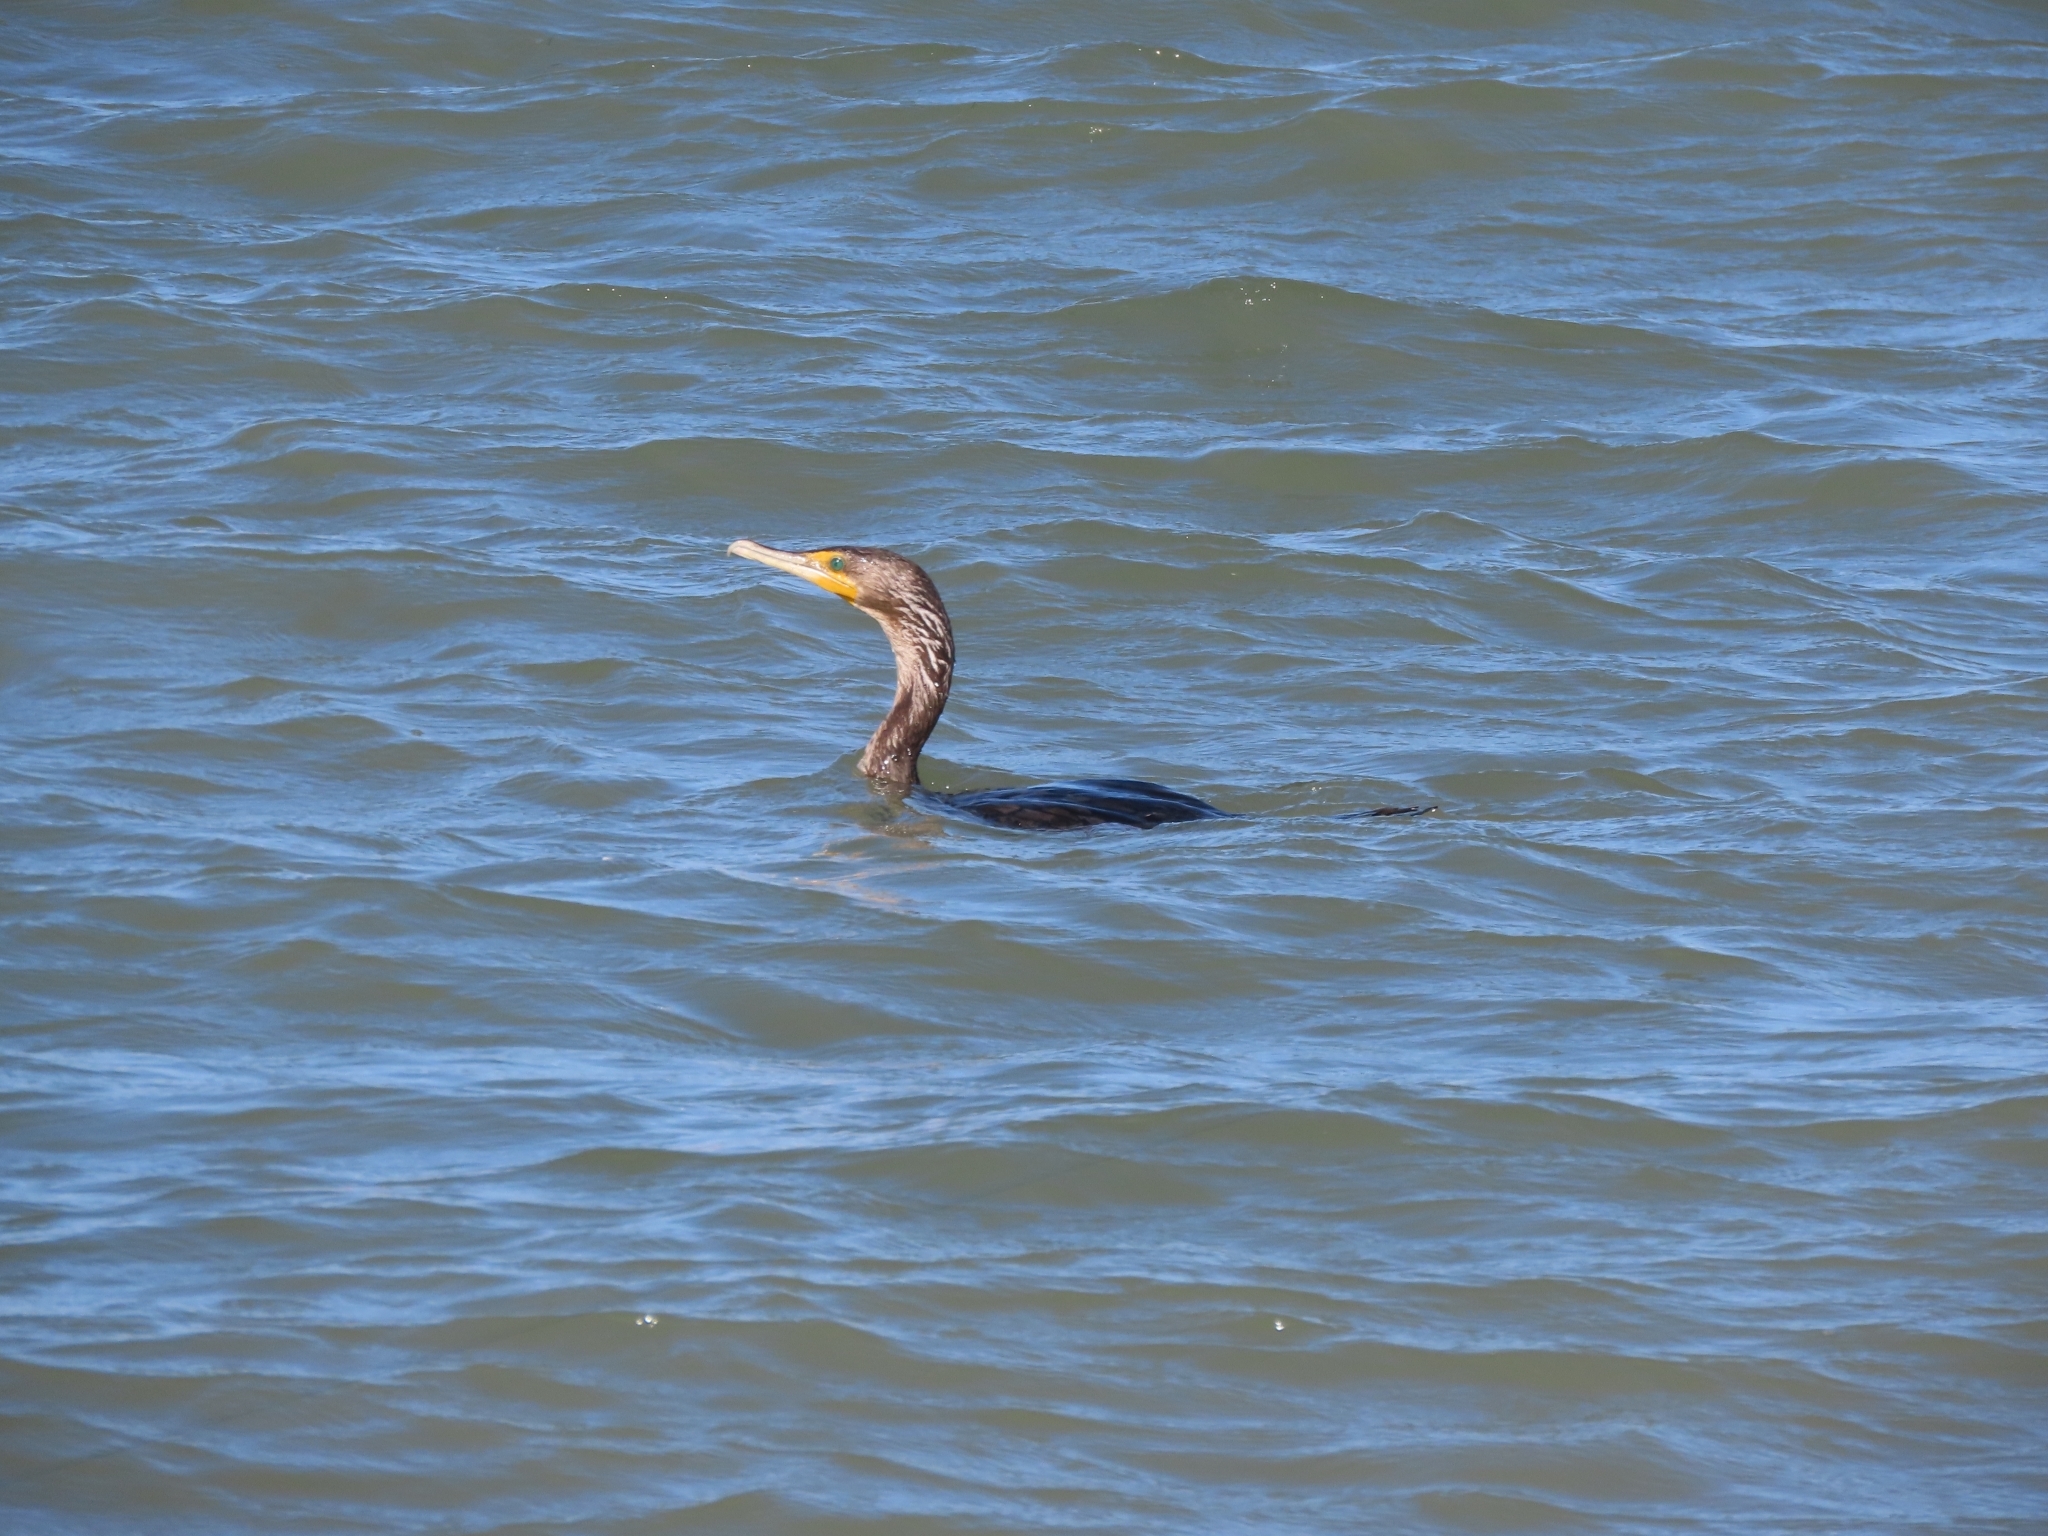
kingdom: Animalia
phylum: Chordata
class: Aves
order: Suliformes
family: Phalacrocoracidae
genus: Phalacrocorax
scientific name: Phalacrocorax auritus
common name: Double-crested cormorant
